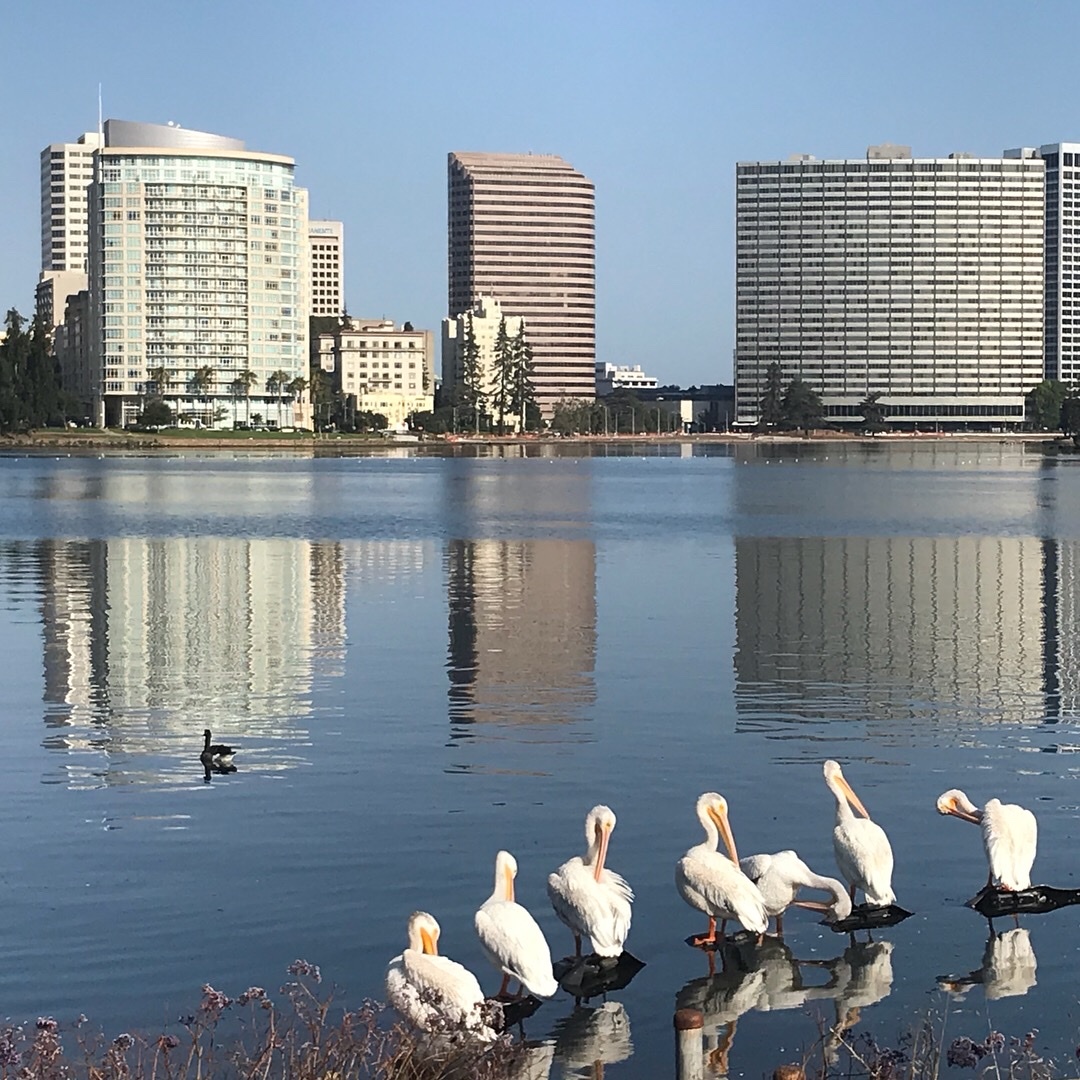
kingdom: Animalia
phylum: Chordata
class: Aves
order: Pelecaniformes
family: Pelecanidae
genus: Pelecanus
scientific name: Pelecanus erythrorhynchos
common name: American white pelican
